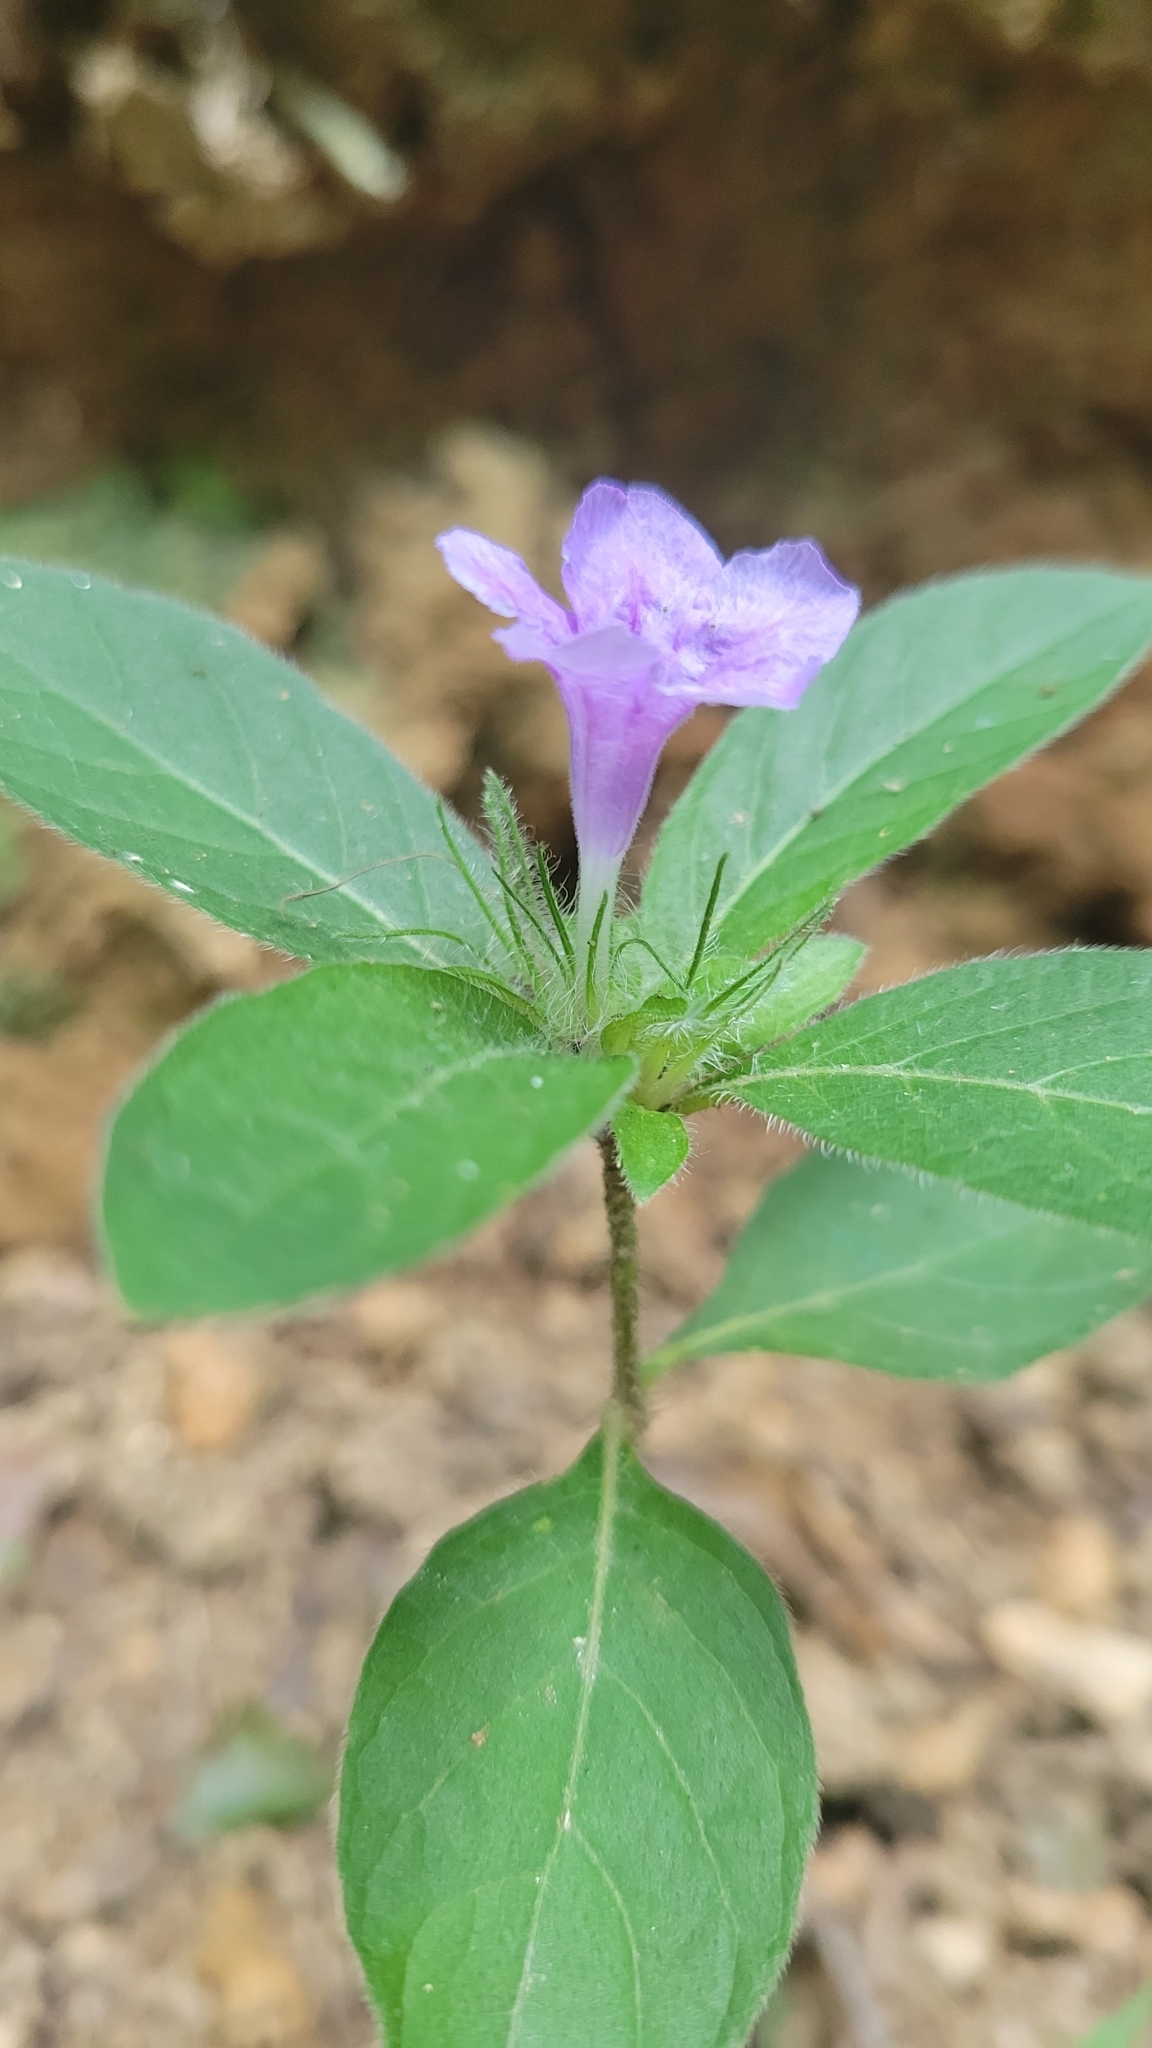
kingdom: Plantae
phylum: Tracheophyta
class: Magnoliopsida
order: Lamiales
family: Acanthaceae
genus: Ruellia
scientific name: Ruellia caroliniensis
